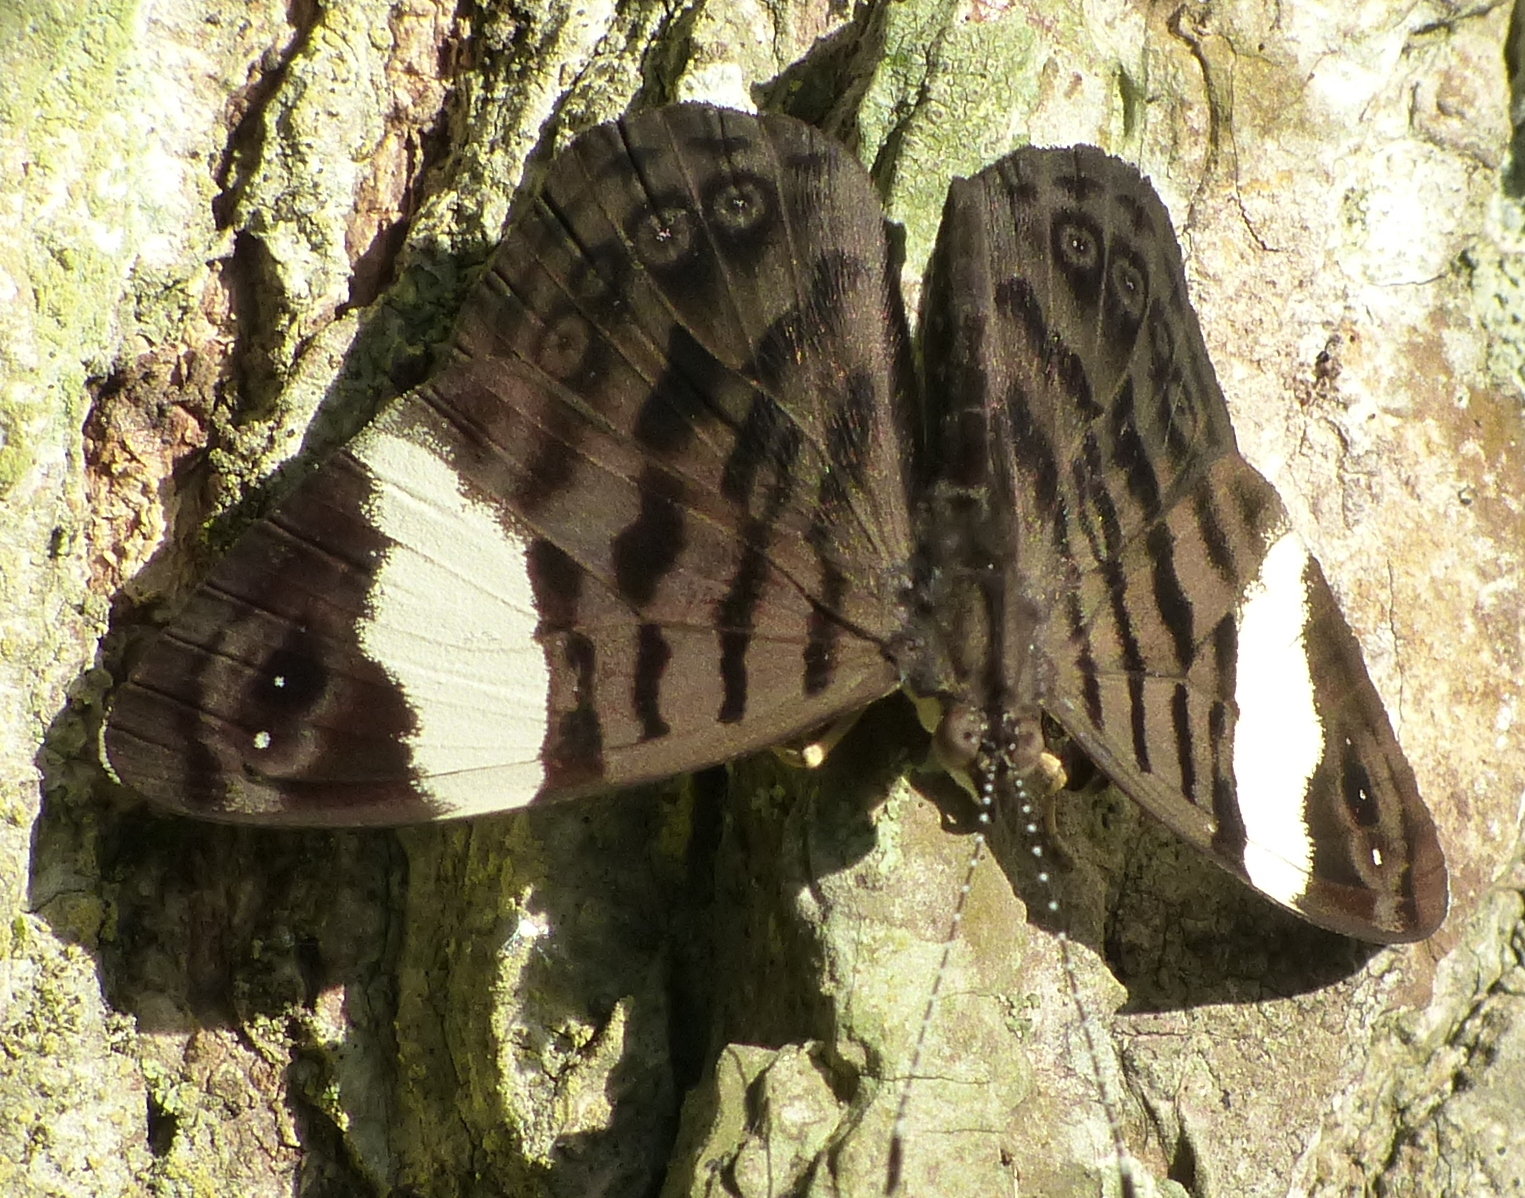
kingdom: Animalia
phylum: Arthropoda
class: Insecta
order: Lepidoptera
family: Nymphalidae
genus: Ectima
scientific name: Ectima thecla
